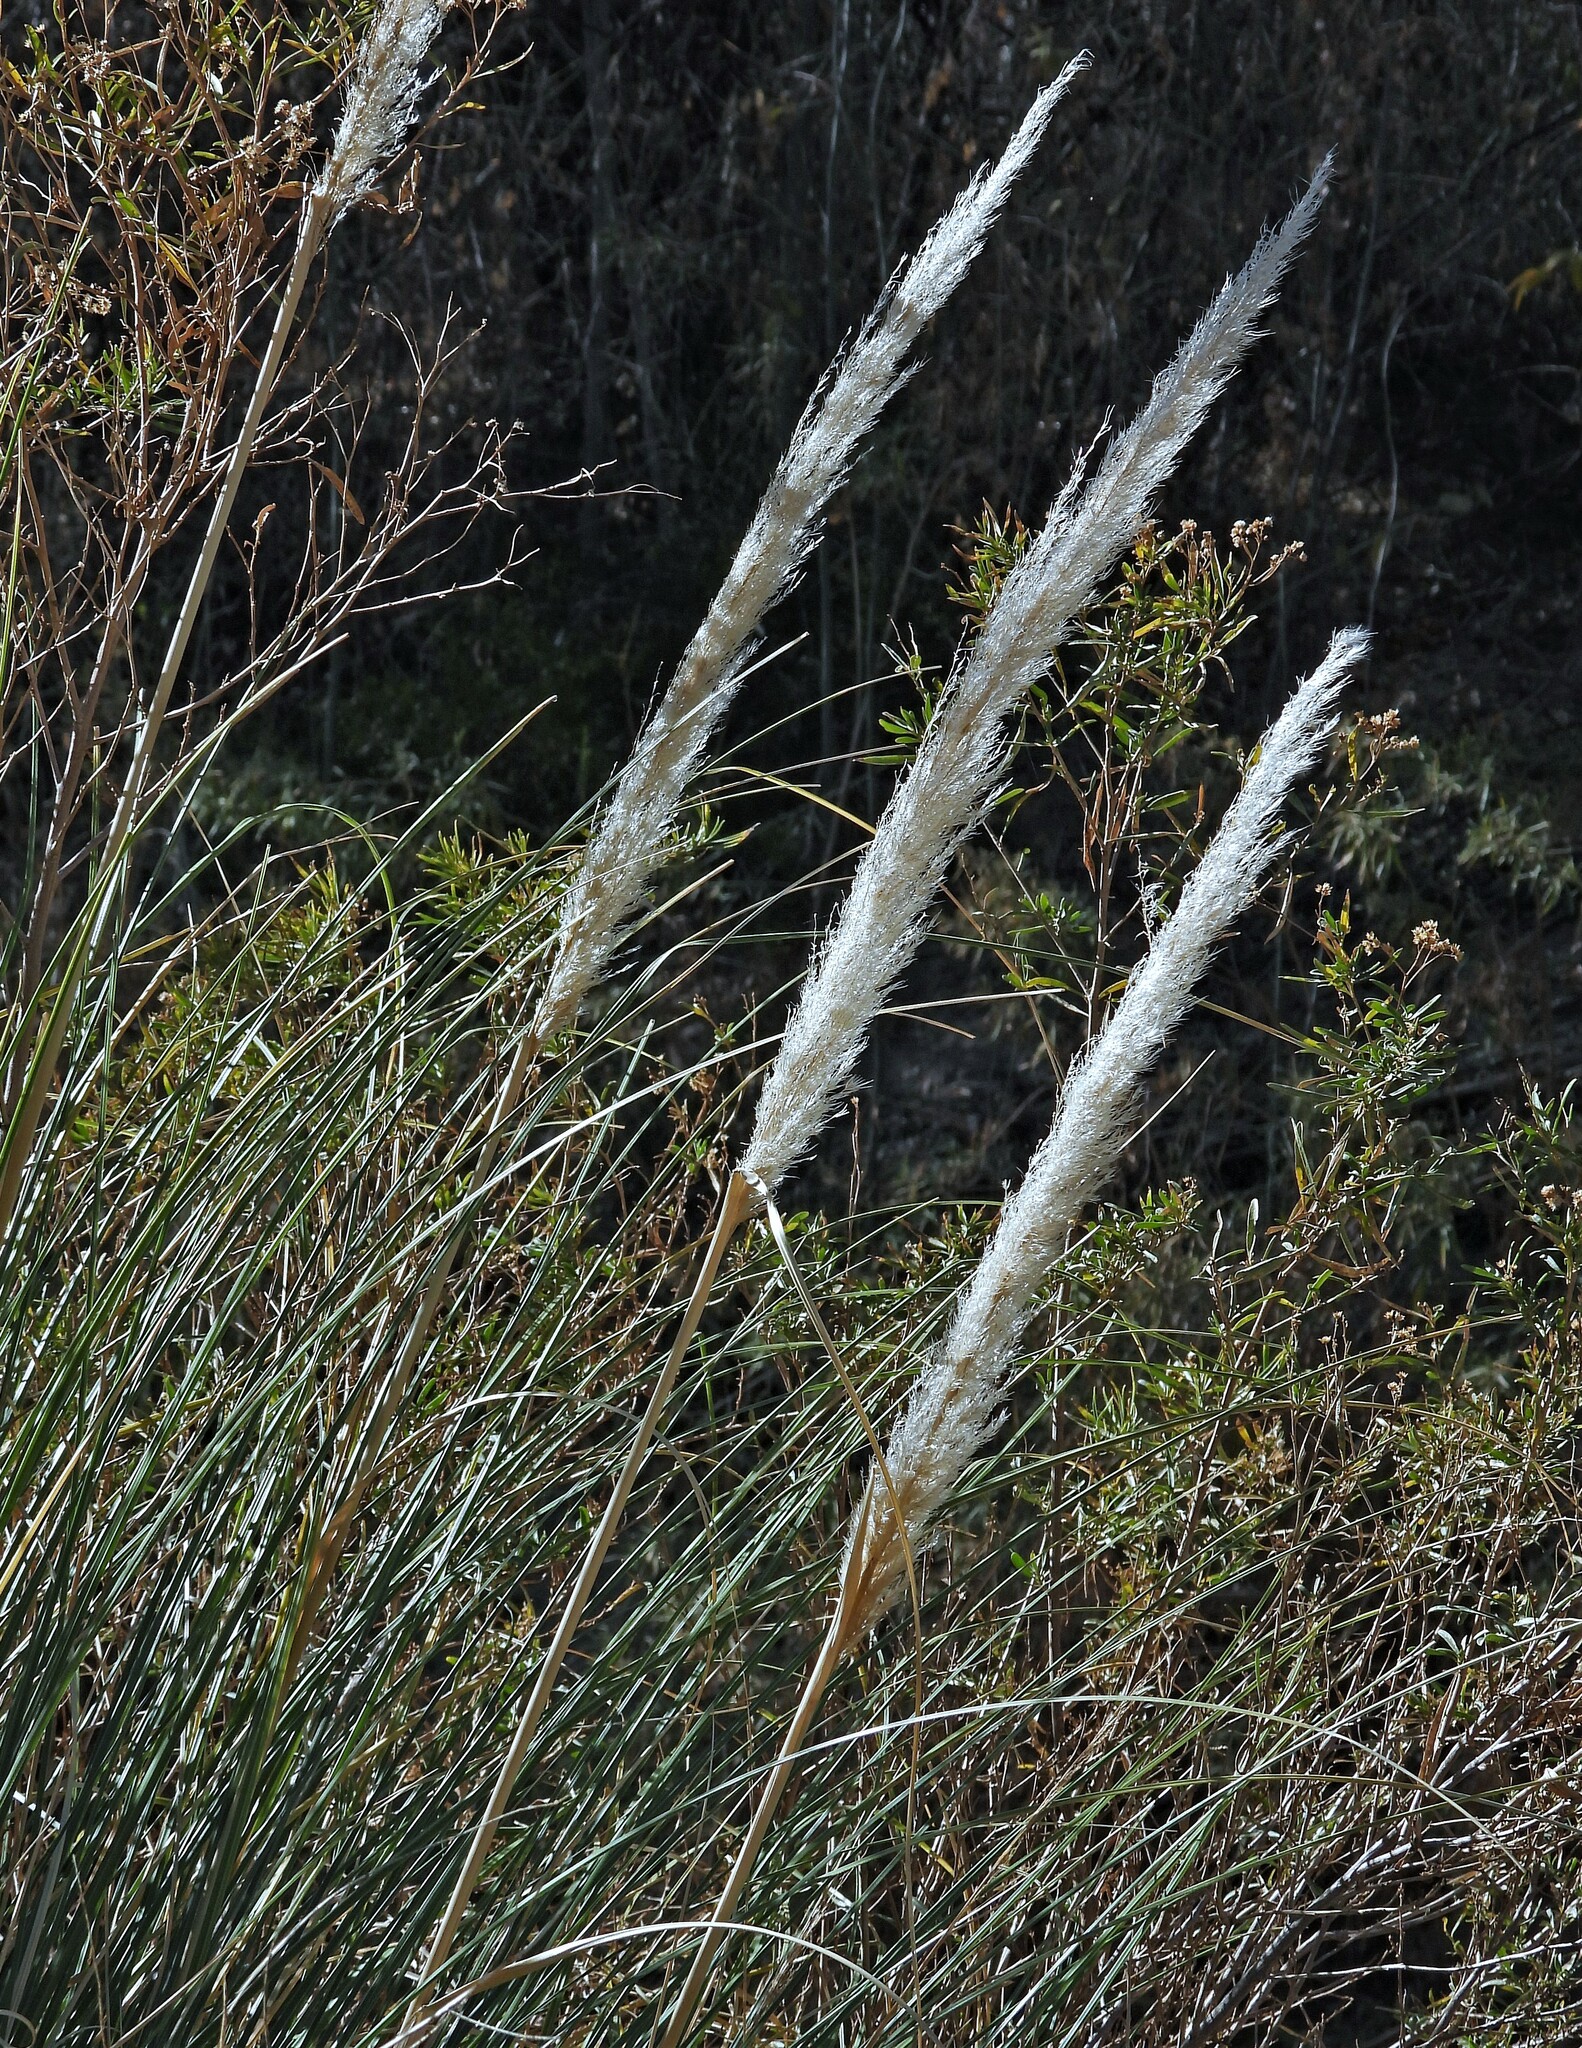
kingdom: Plantae
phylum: Tracheophyta
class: Liliopsida
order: Poales
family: Poaceae
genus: Cortaderia
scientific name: Cortaderia selloana
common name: Uruguayan pampas grass
